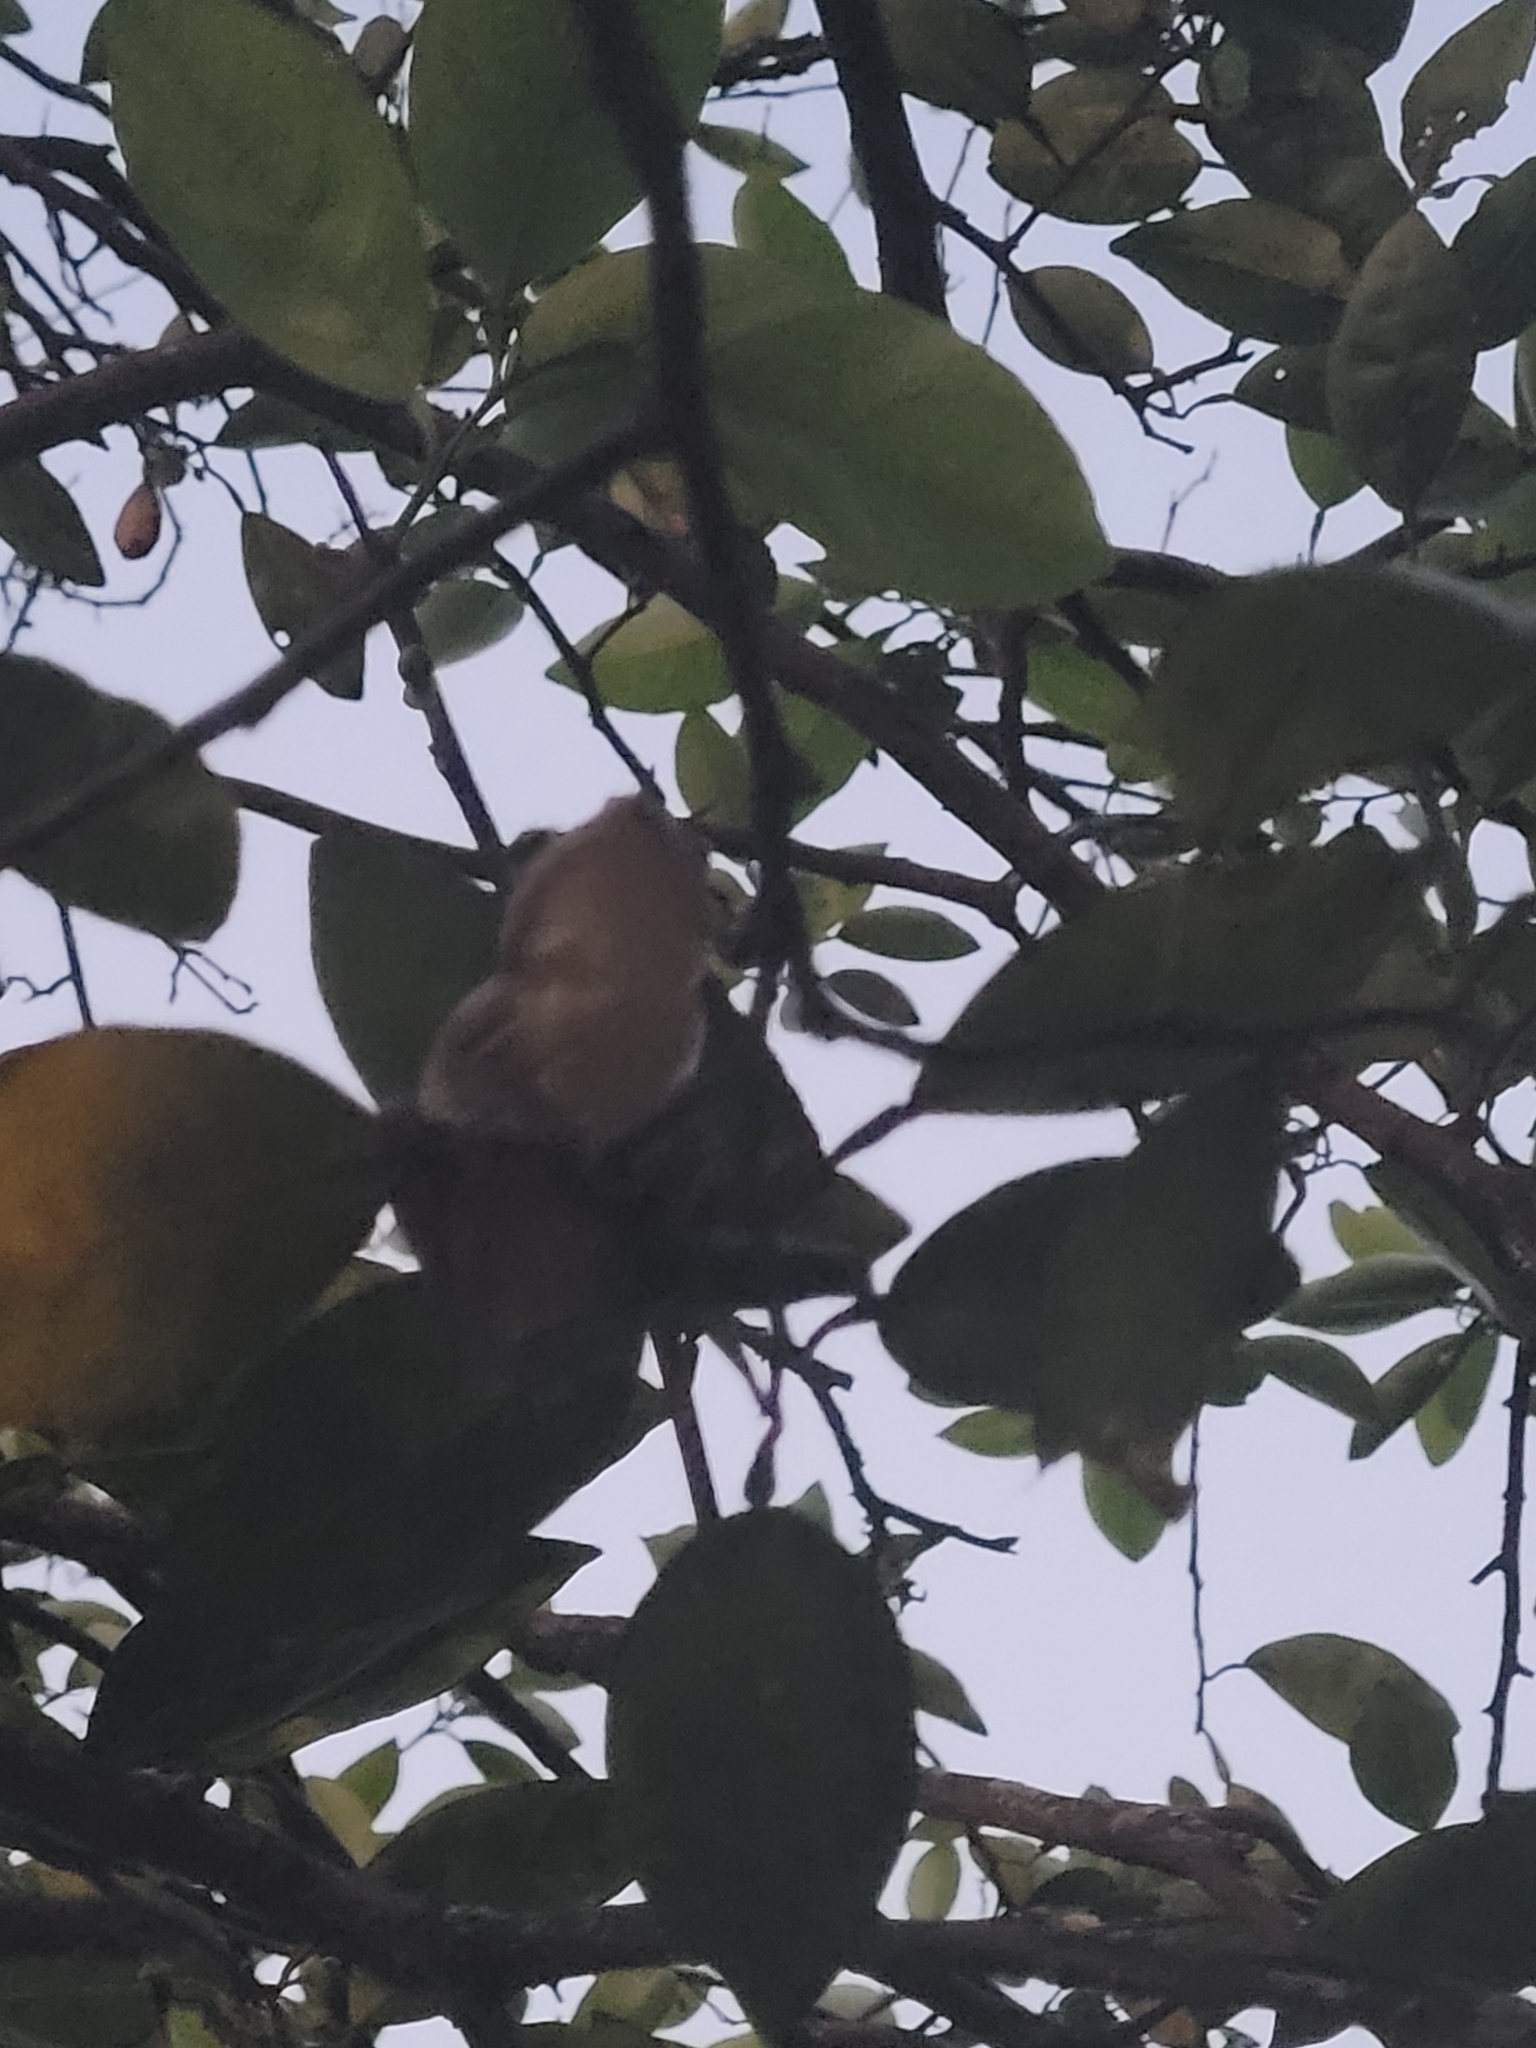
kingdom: Animalia
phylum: Chordata
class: Amphibia
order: Anura
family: Hylidae
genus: Osteopilus
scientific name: Osteopilus septentrionalis
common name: Cuban treefrog
